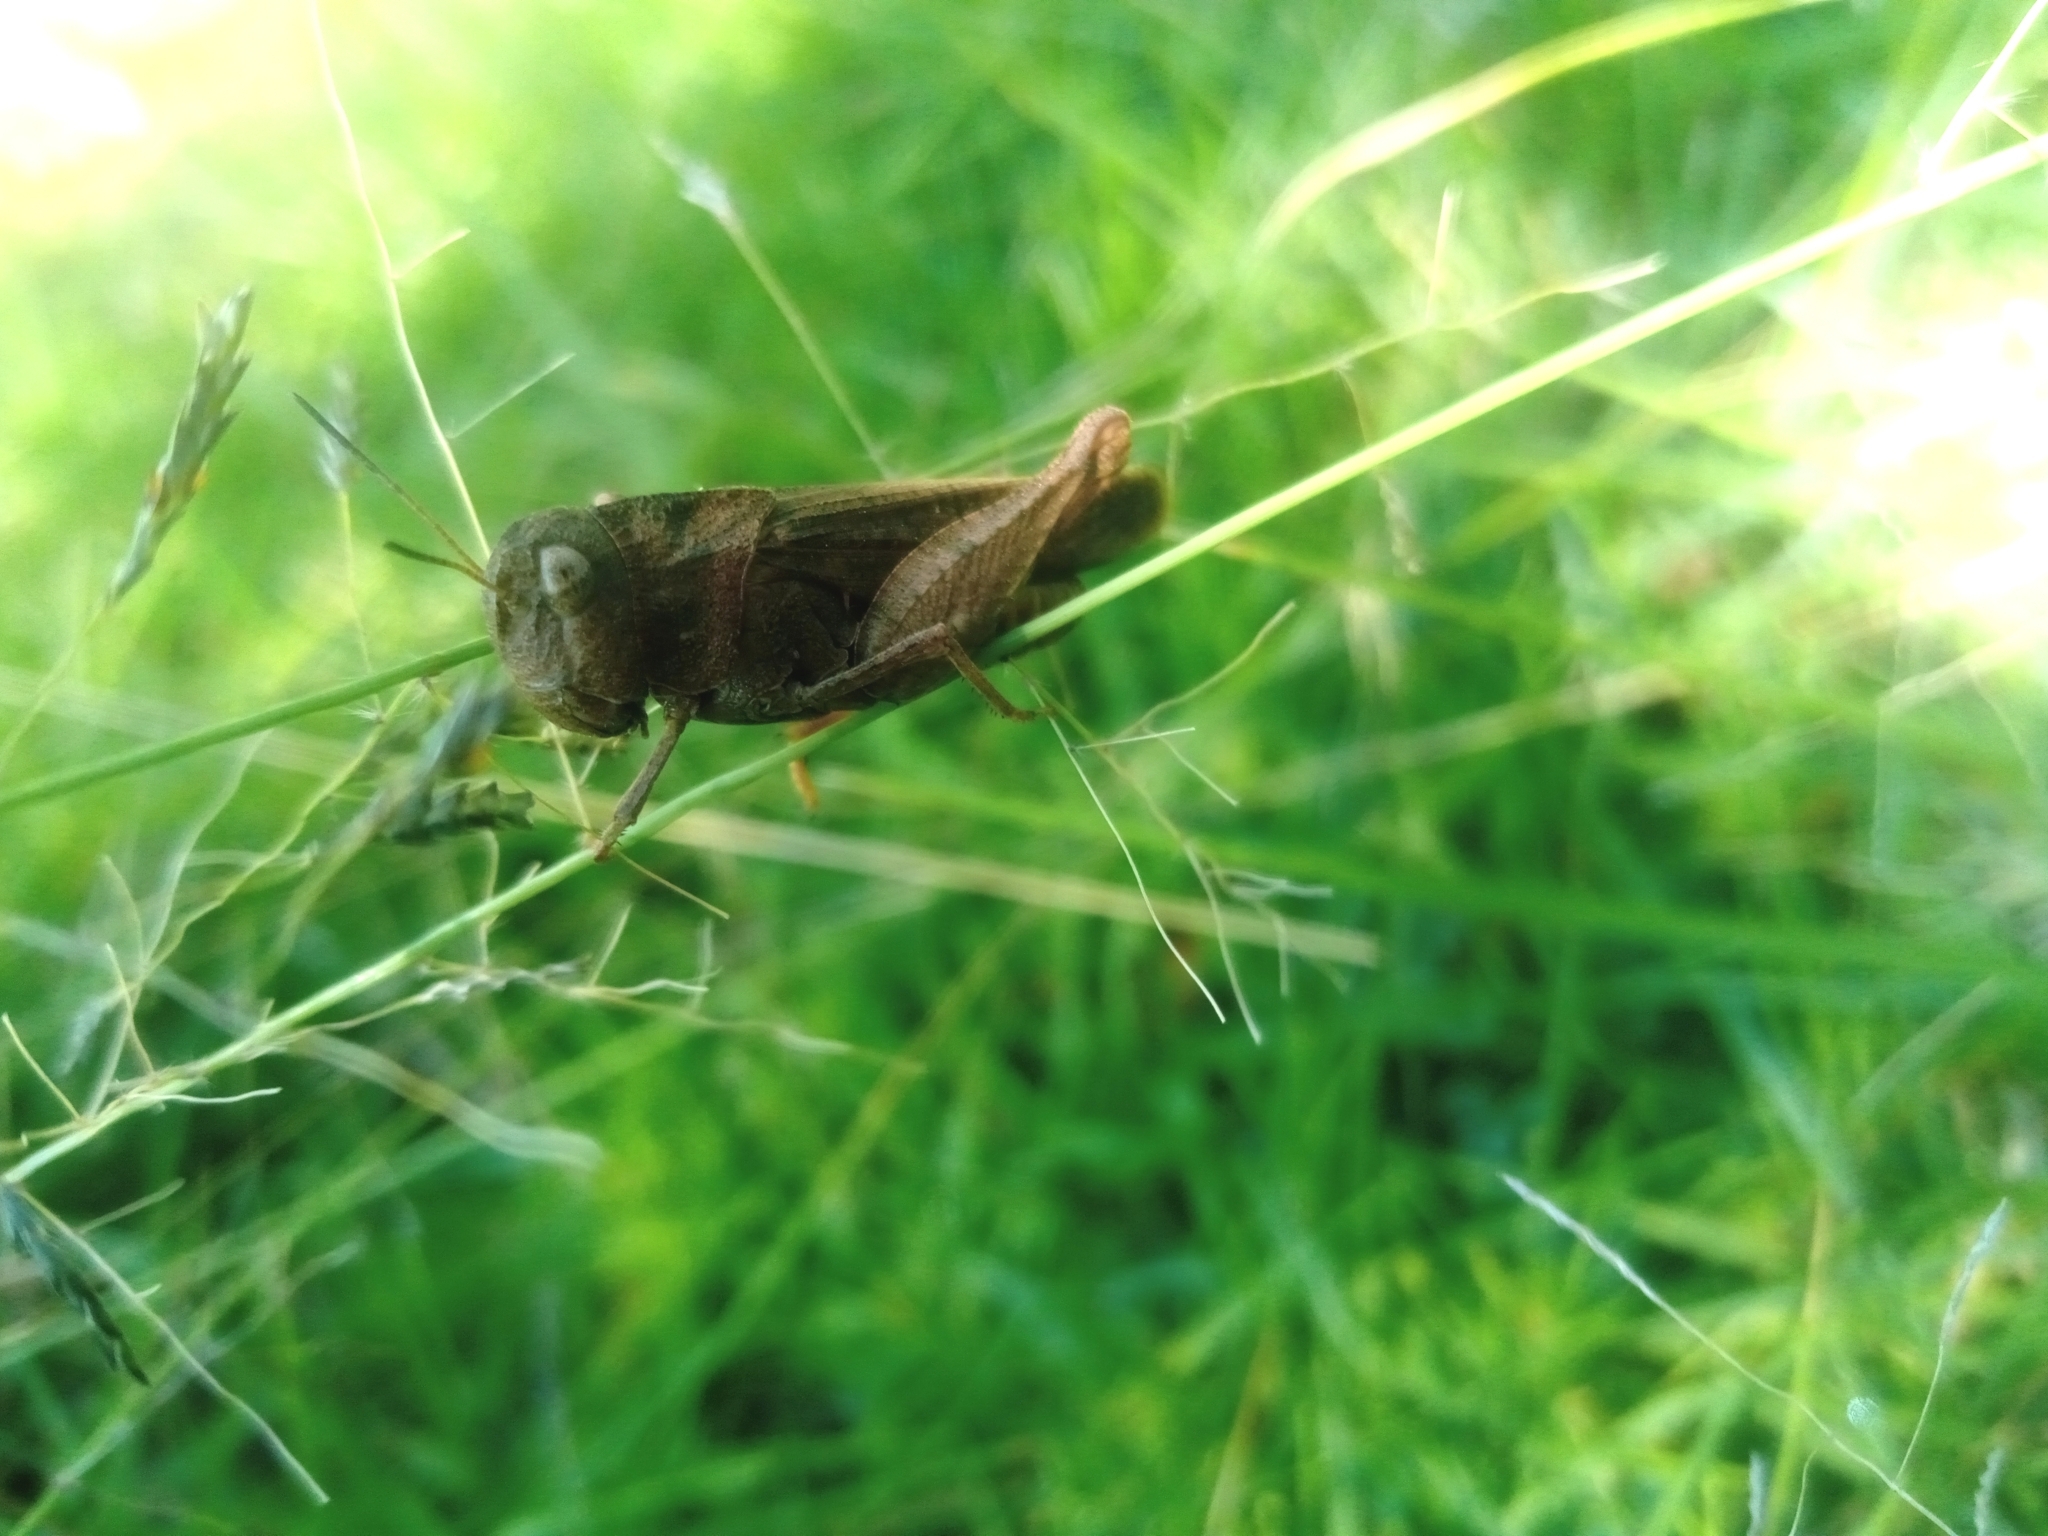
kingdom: Animalia
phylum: Arthropoda
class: Insecta
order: Orthoptera
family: Acrididae
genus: Arphia
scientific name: Arphia nietana
